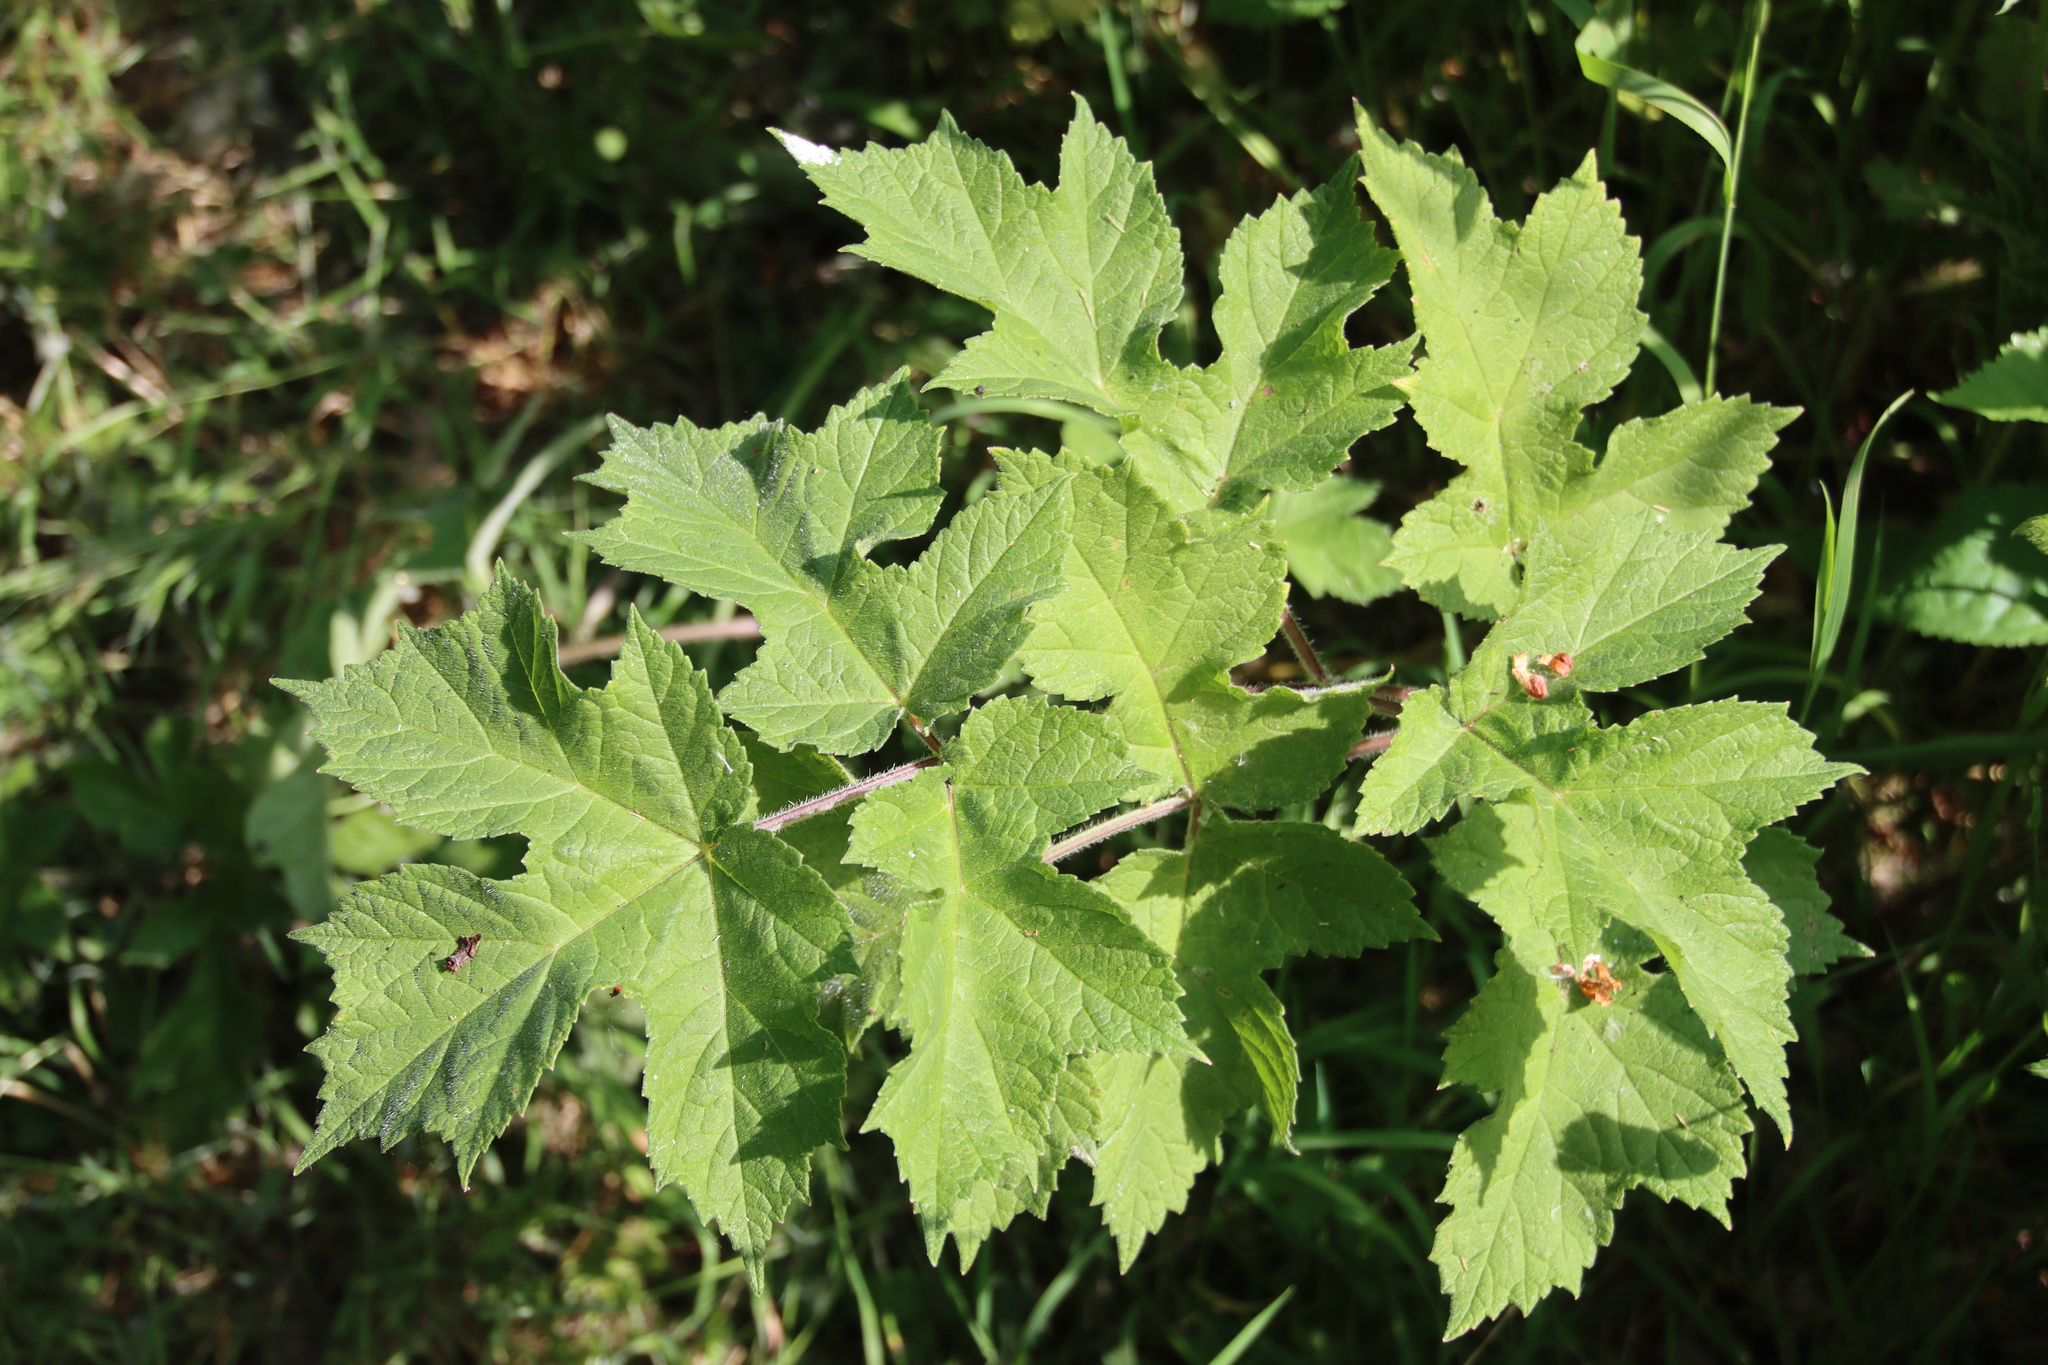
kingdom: Plantae
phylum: Tracheophyta
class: Magnoliopsida
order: Apiales
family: Apiaceae
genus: Heracleum
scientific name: Heracleum sphondylium
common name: Hogweed
